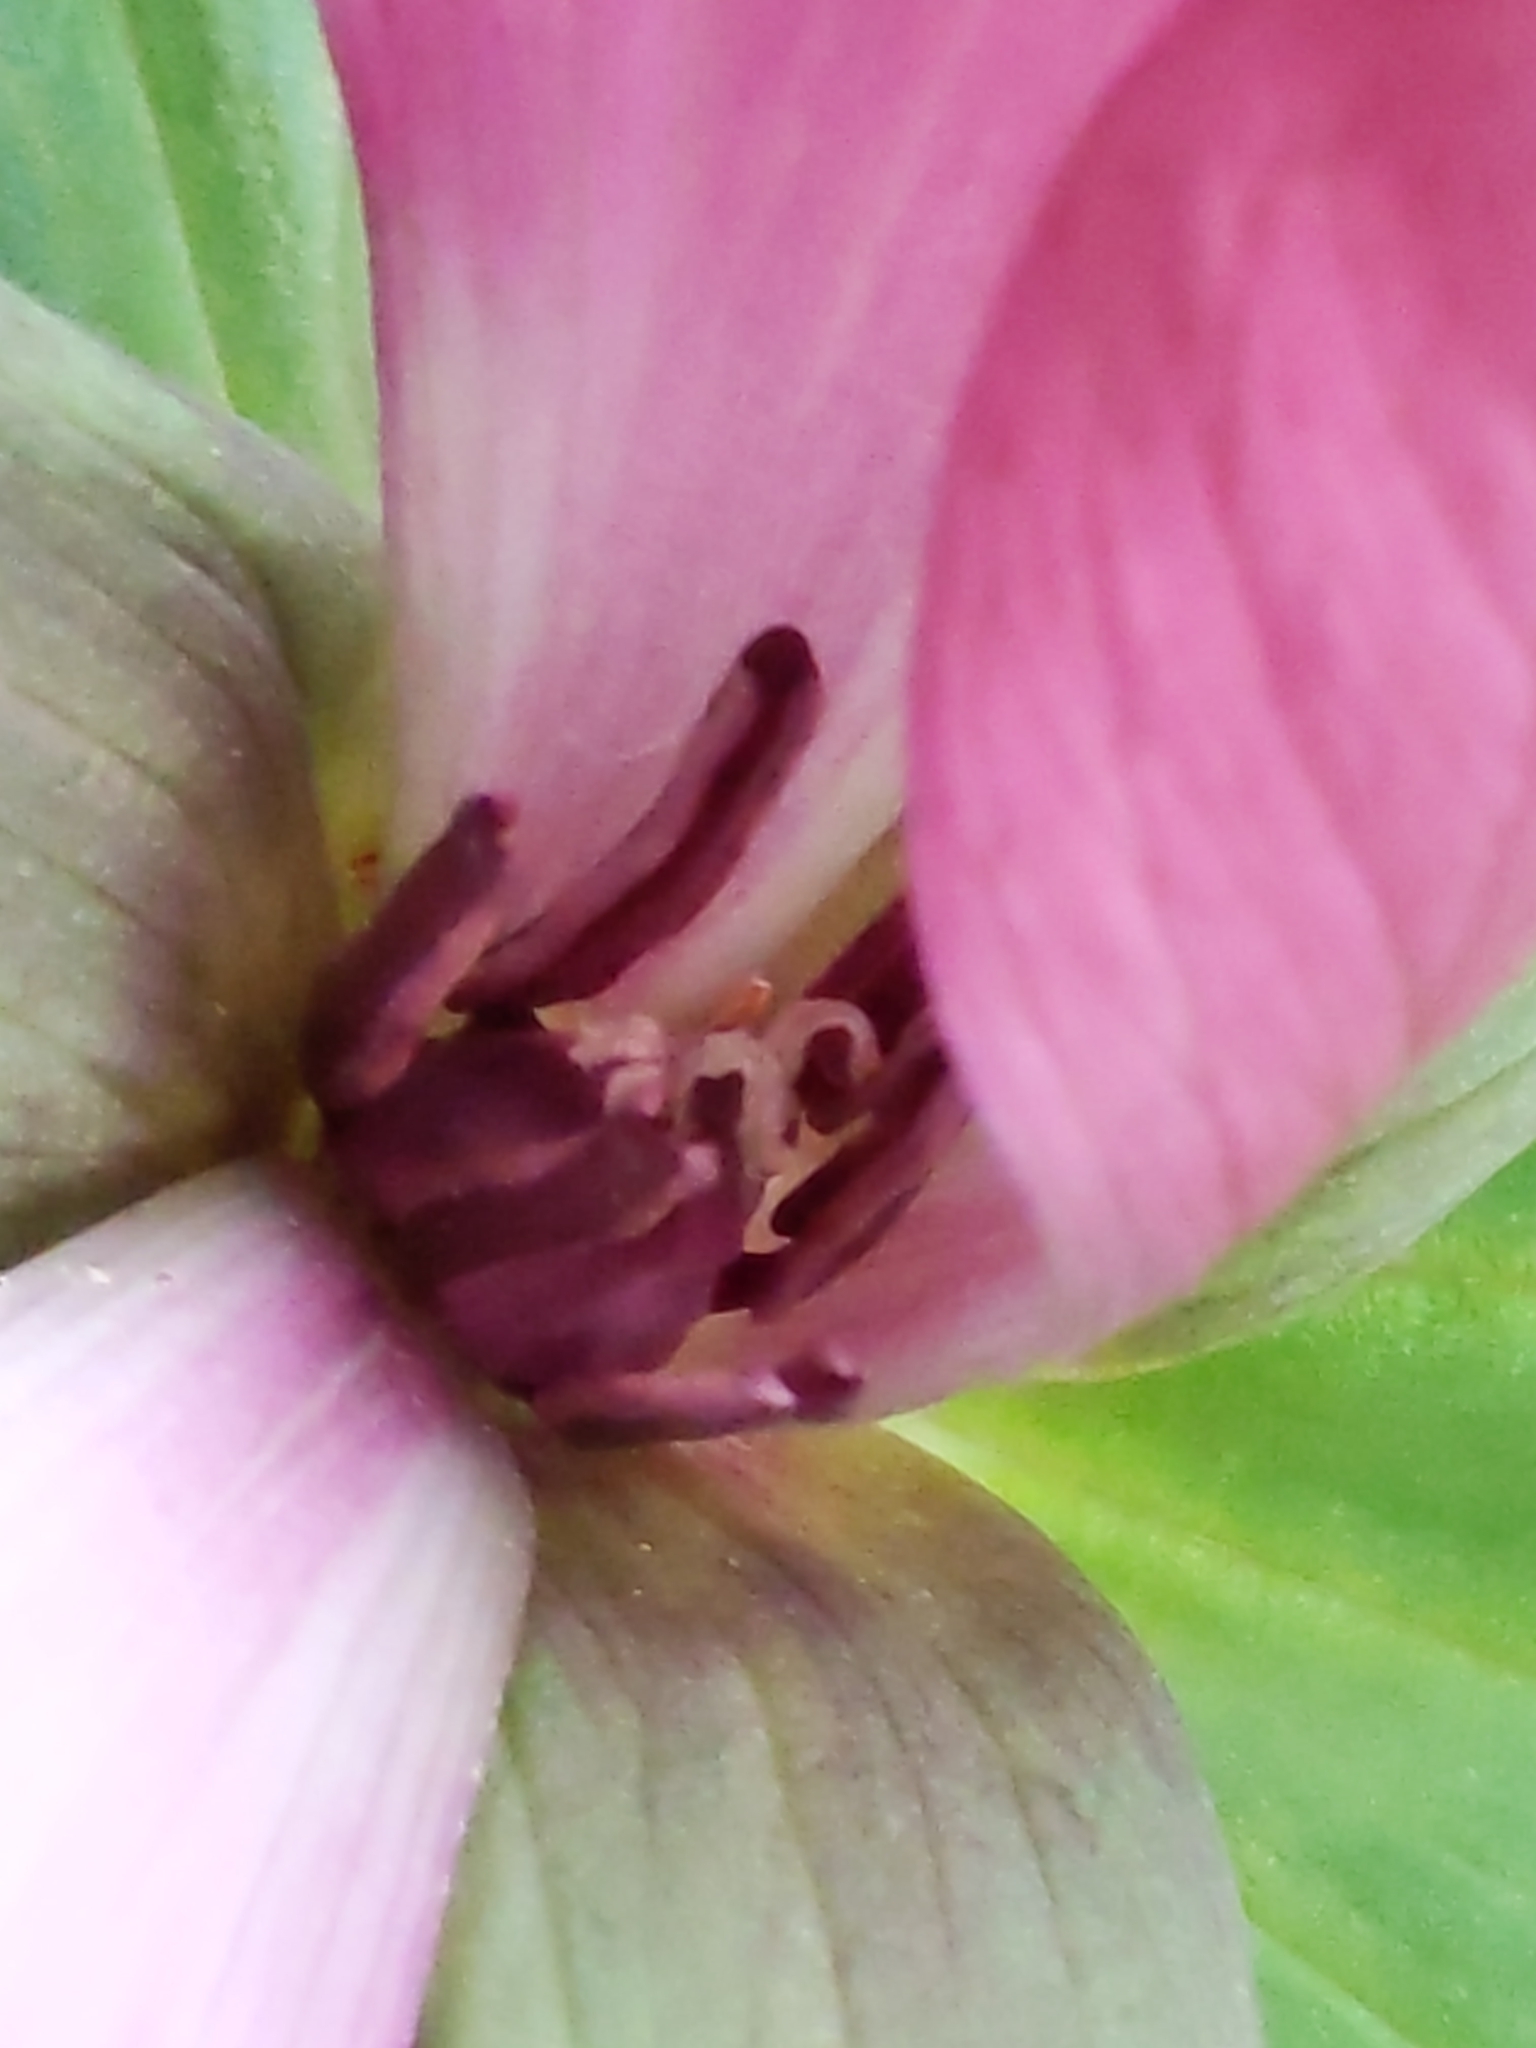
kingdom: Plantae
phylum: Tracheophyta
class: Liliopsida
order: Liliales
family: Melanthiaceae
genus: Trillium
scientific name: Trillium chloropetalum
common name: Giant trillium
